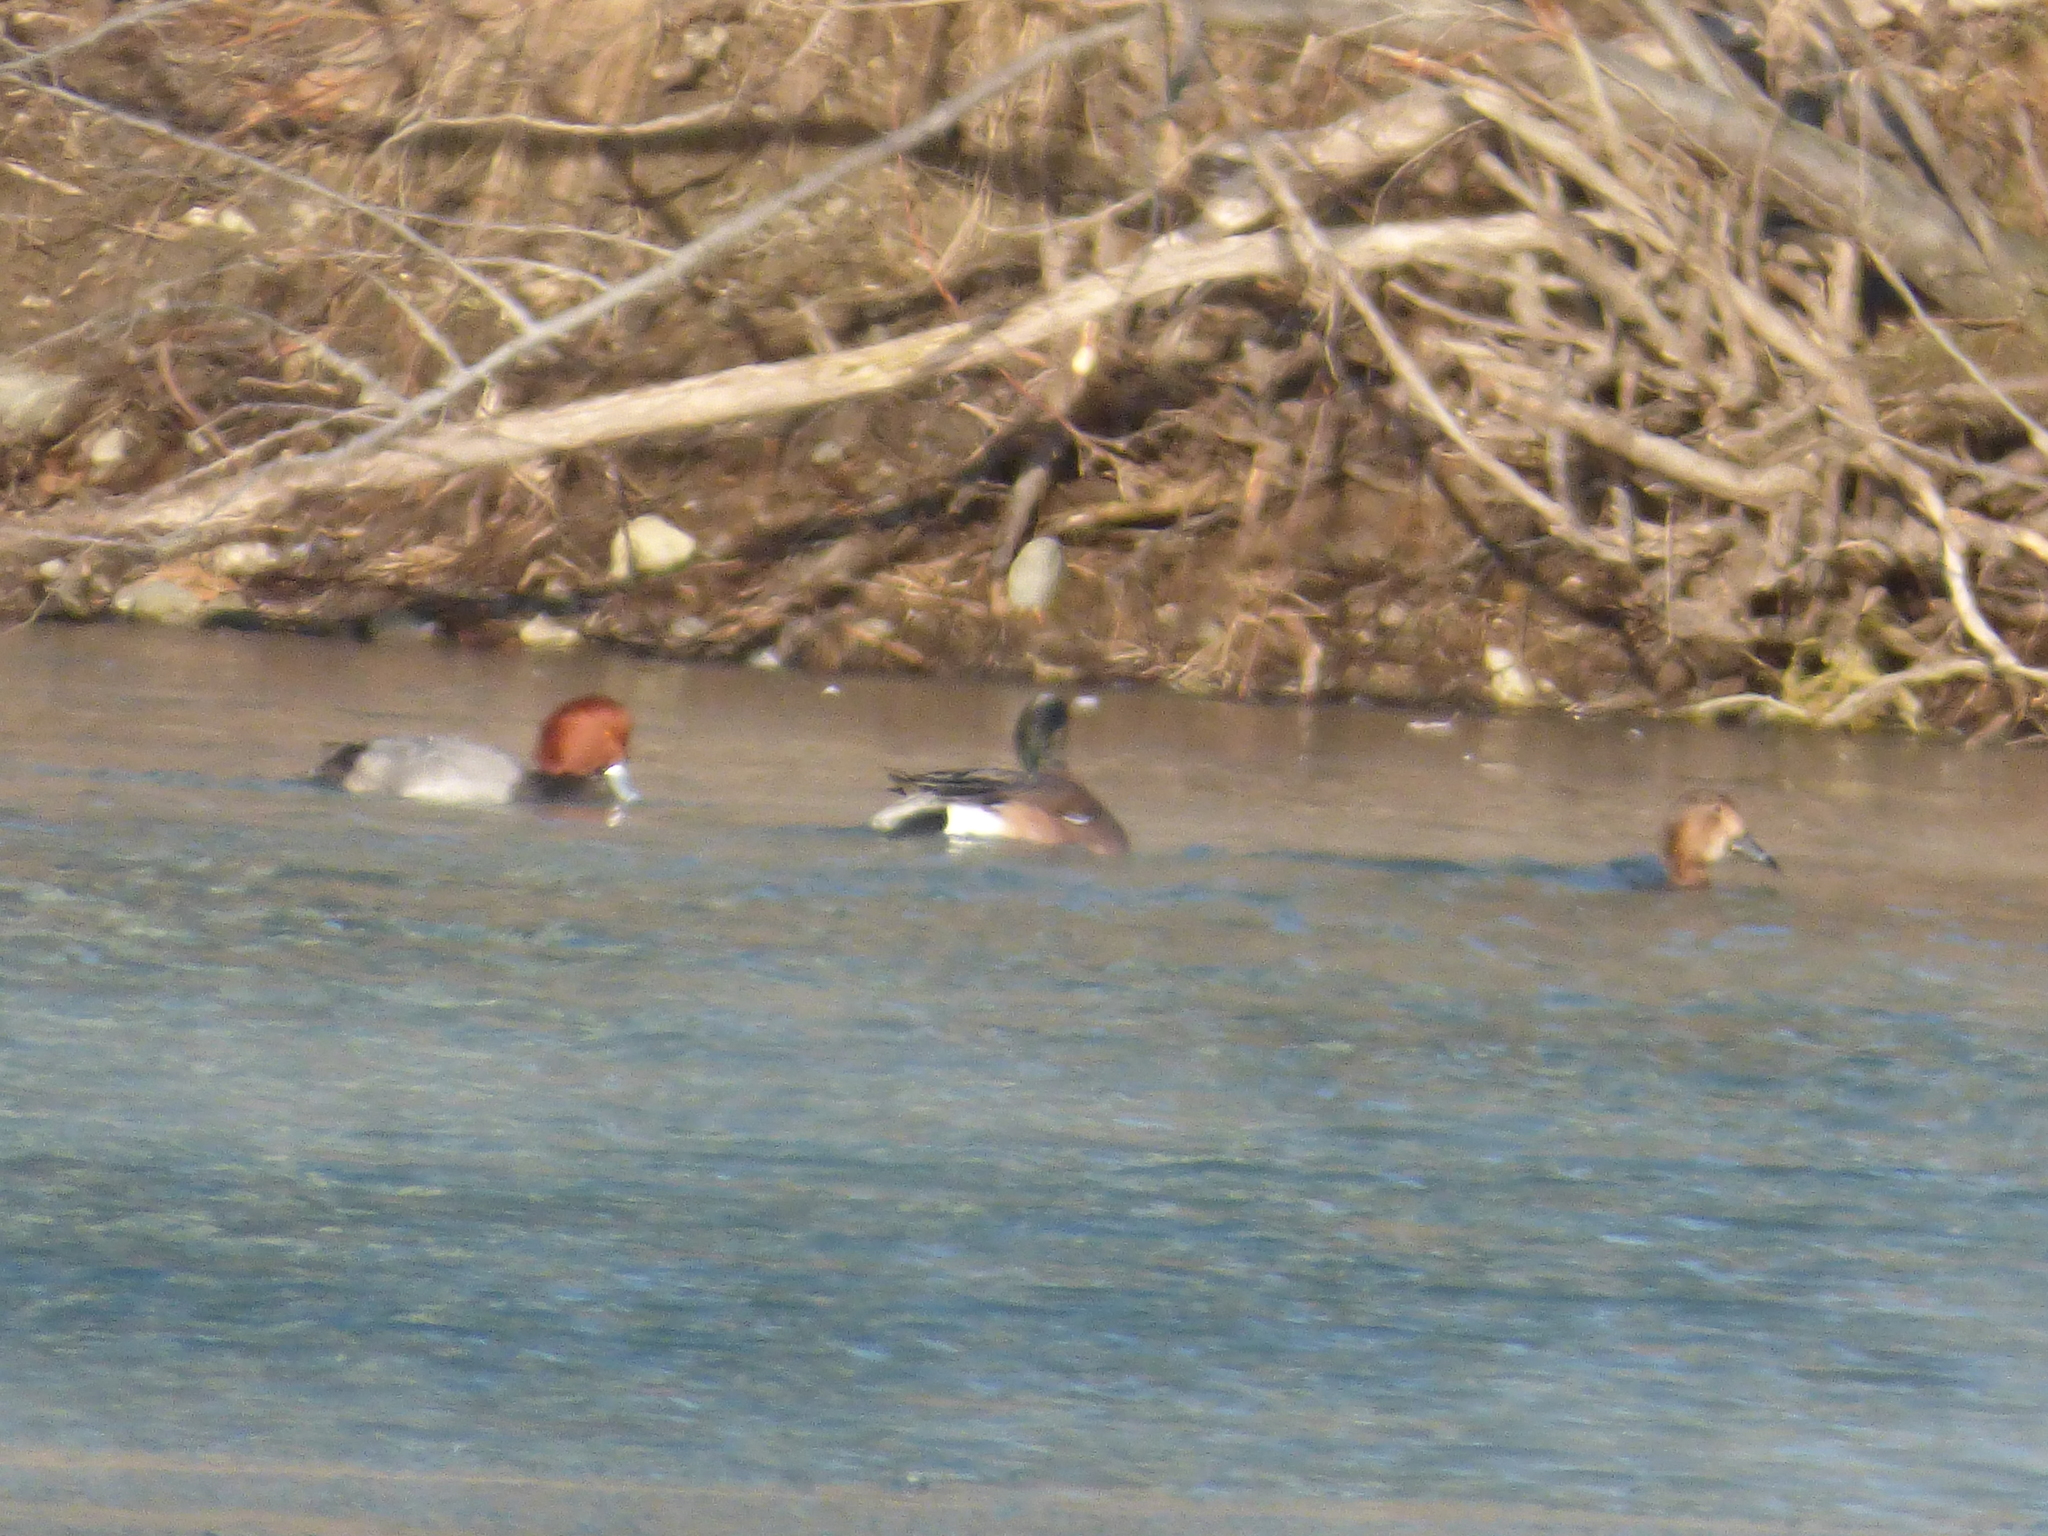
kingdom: Animalia
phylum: Chordata
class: Aves
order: Anseriformes
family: Anatidae
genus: Aythya
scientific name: Aythya americana
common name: Redhead
